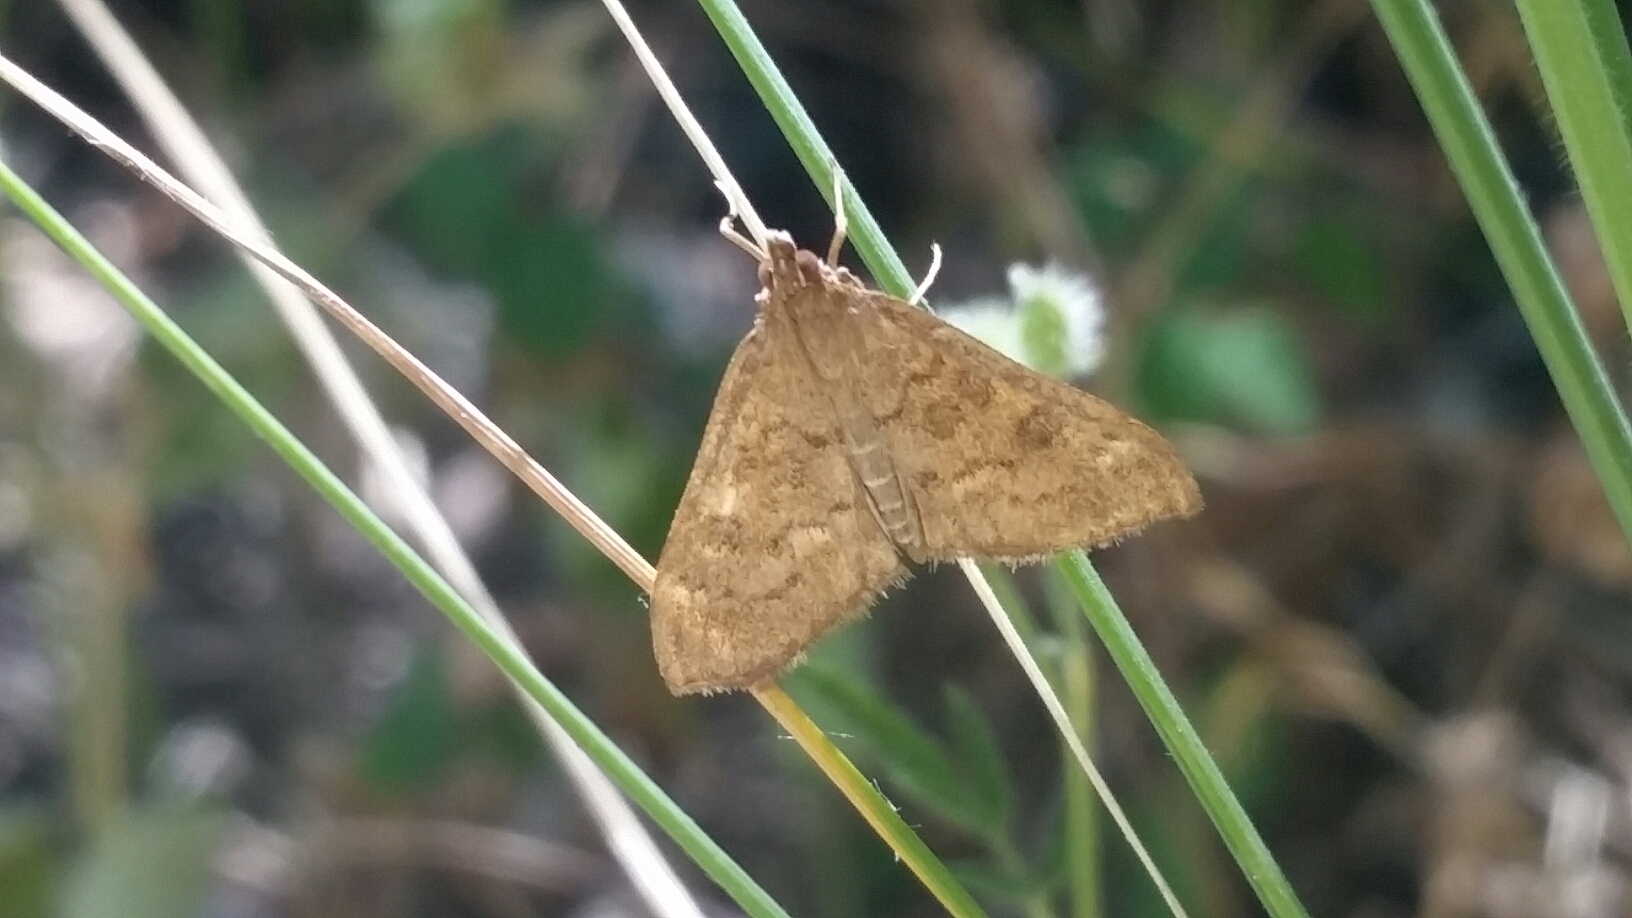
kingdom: Animalia
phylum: Arthropoda
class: Insecta
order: Lepidoptera
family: Crambidae
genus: Mecyna
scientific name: Mecyna mustelinalis
